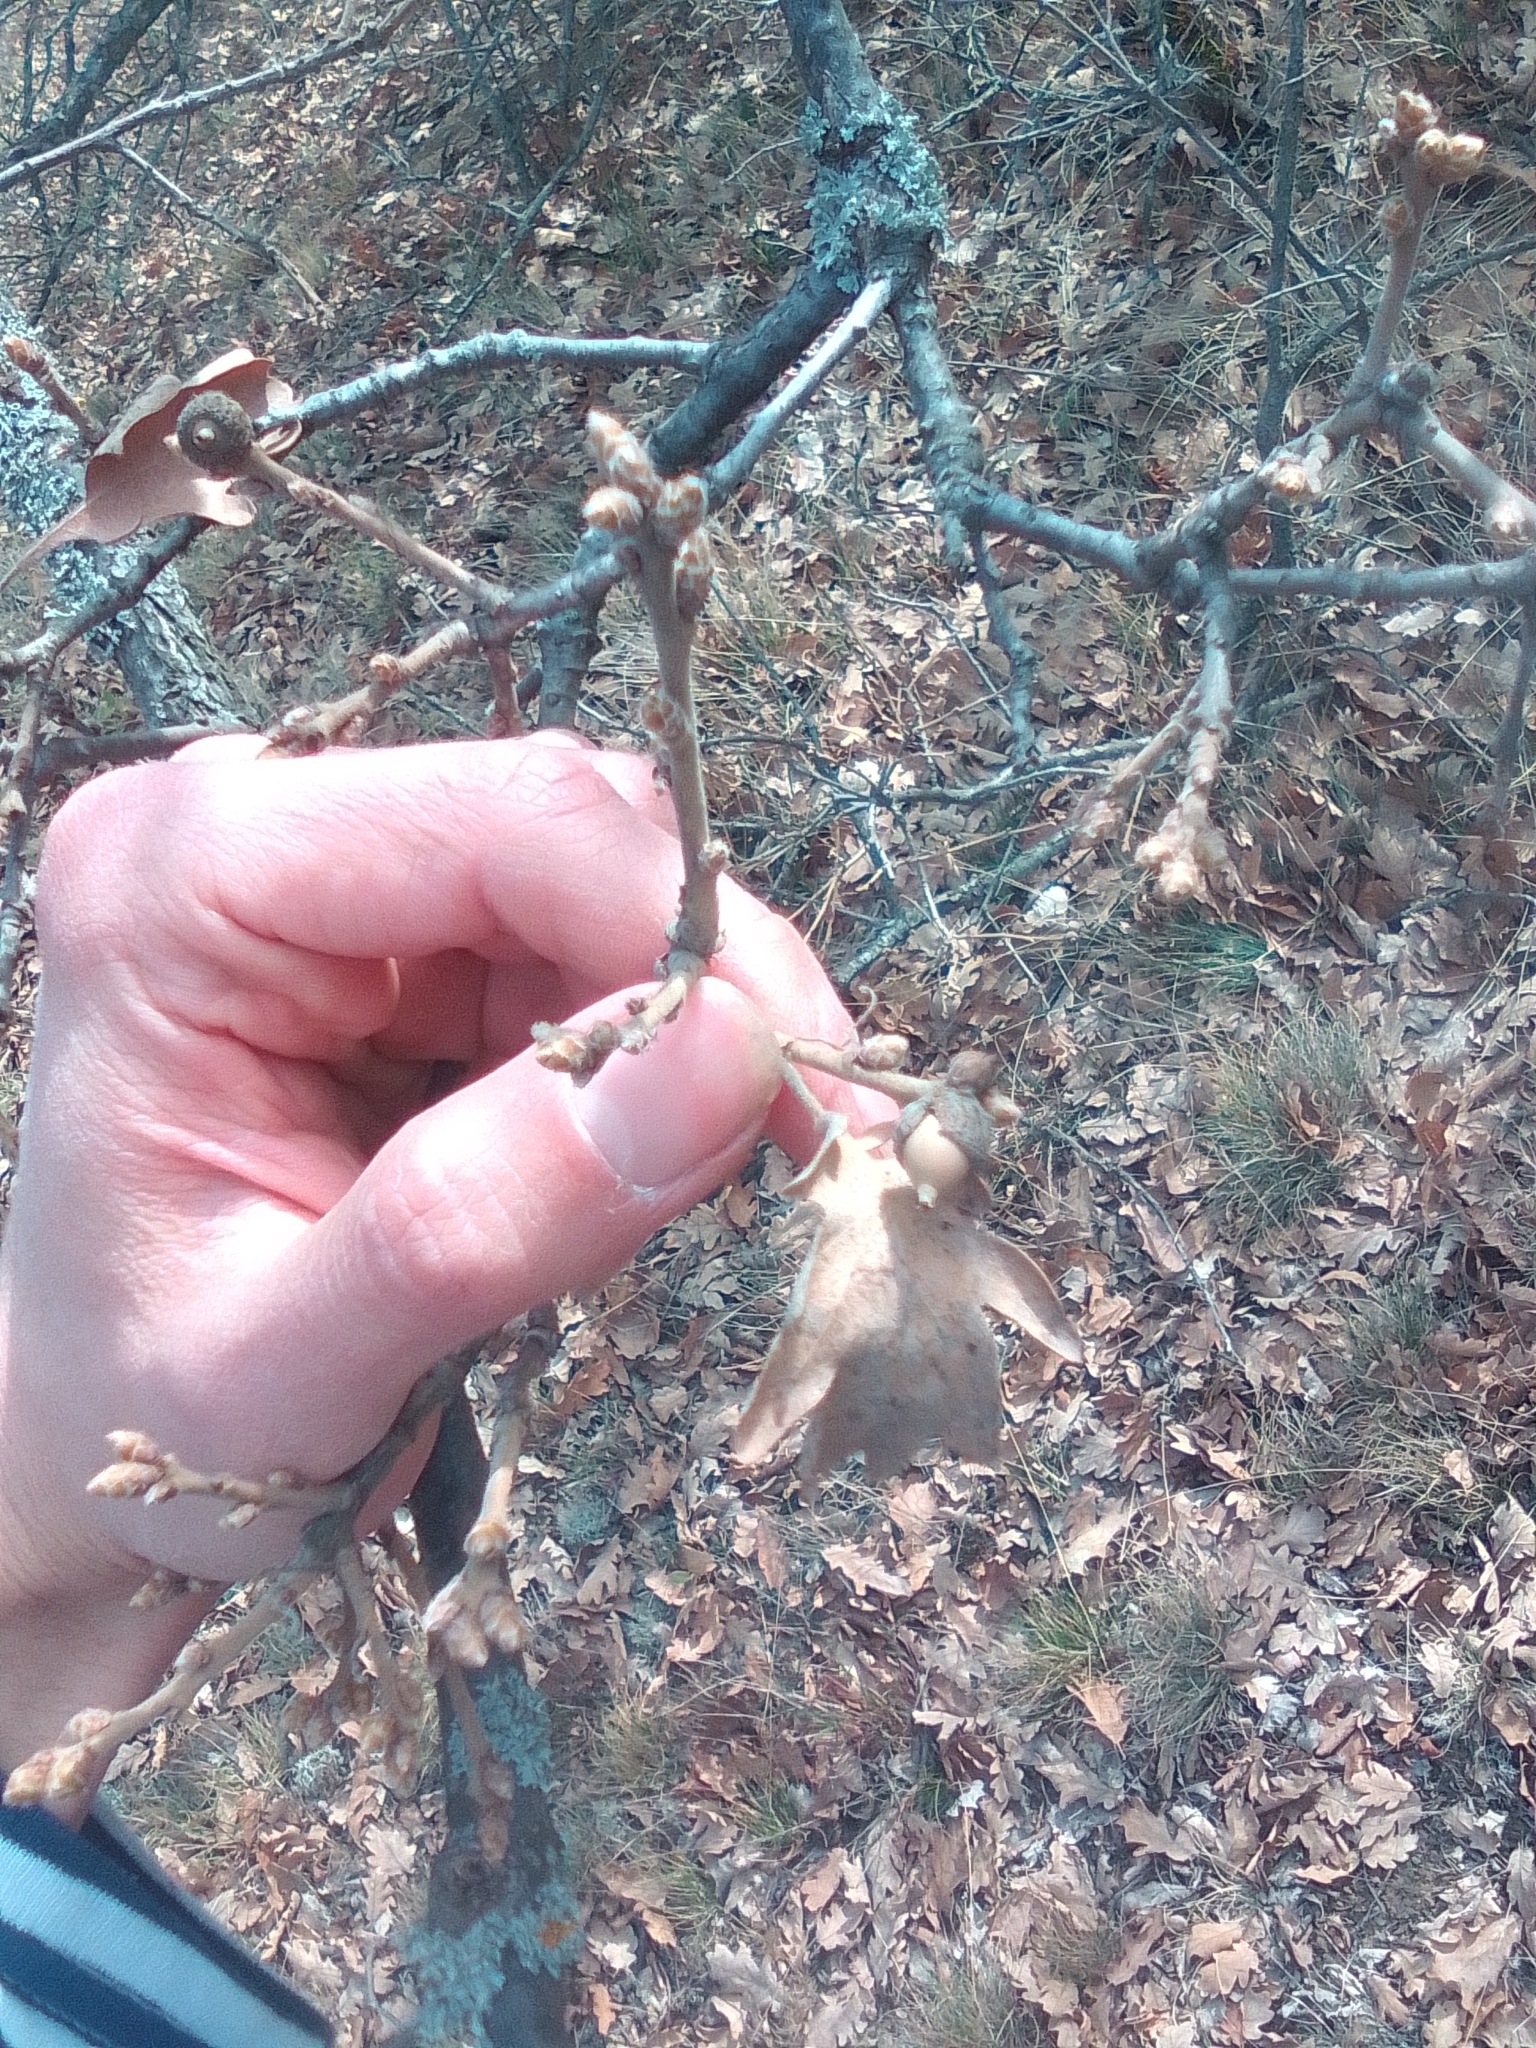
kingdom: Plantae
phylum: Tracheophyta
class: Magnoliopsida
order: Fagales
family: Fagaceae
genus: Quercus
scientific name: Quercus robur
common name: Pedunculate oak
